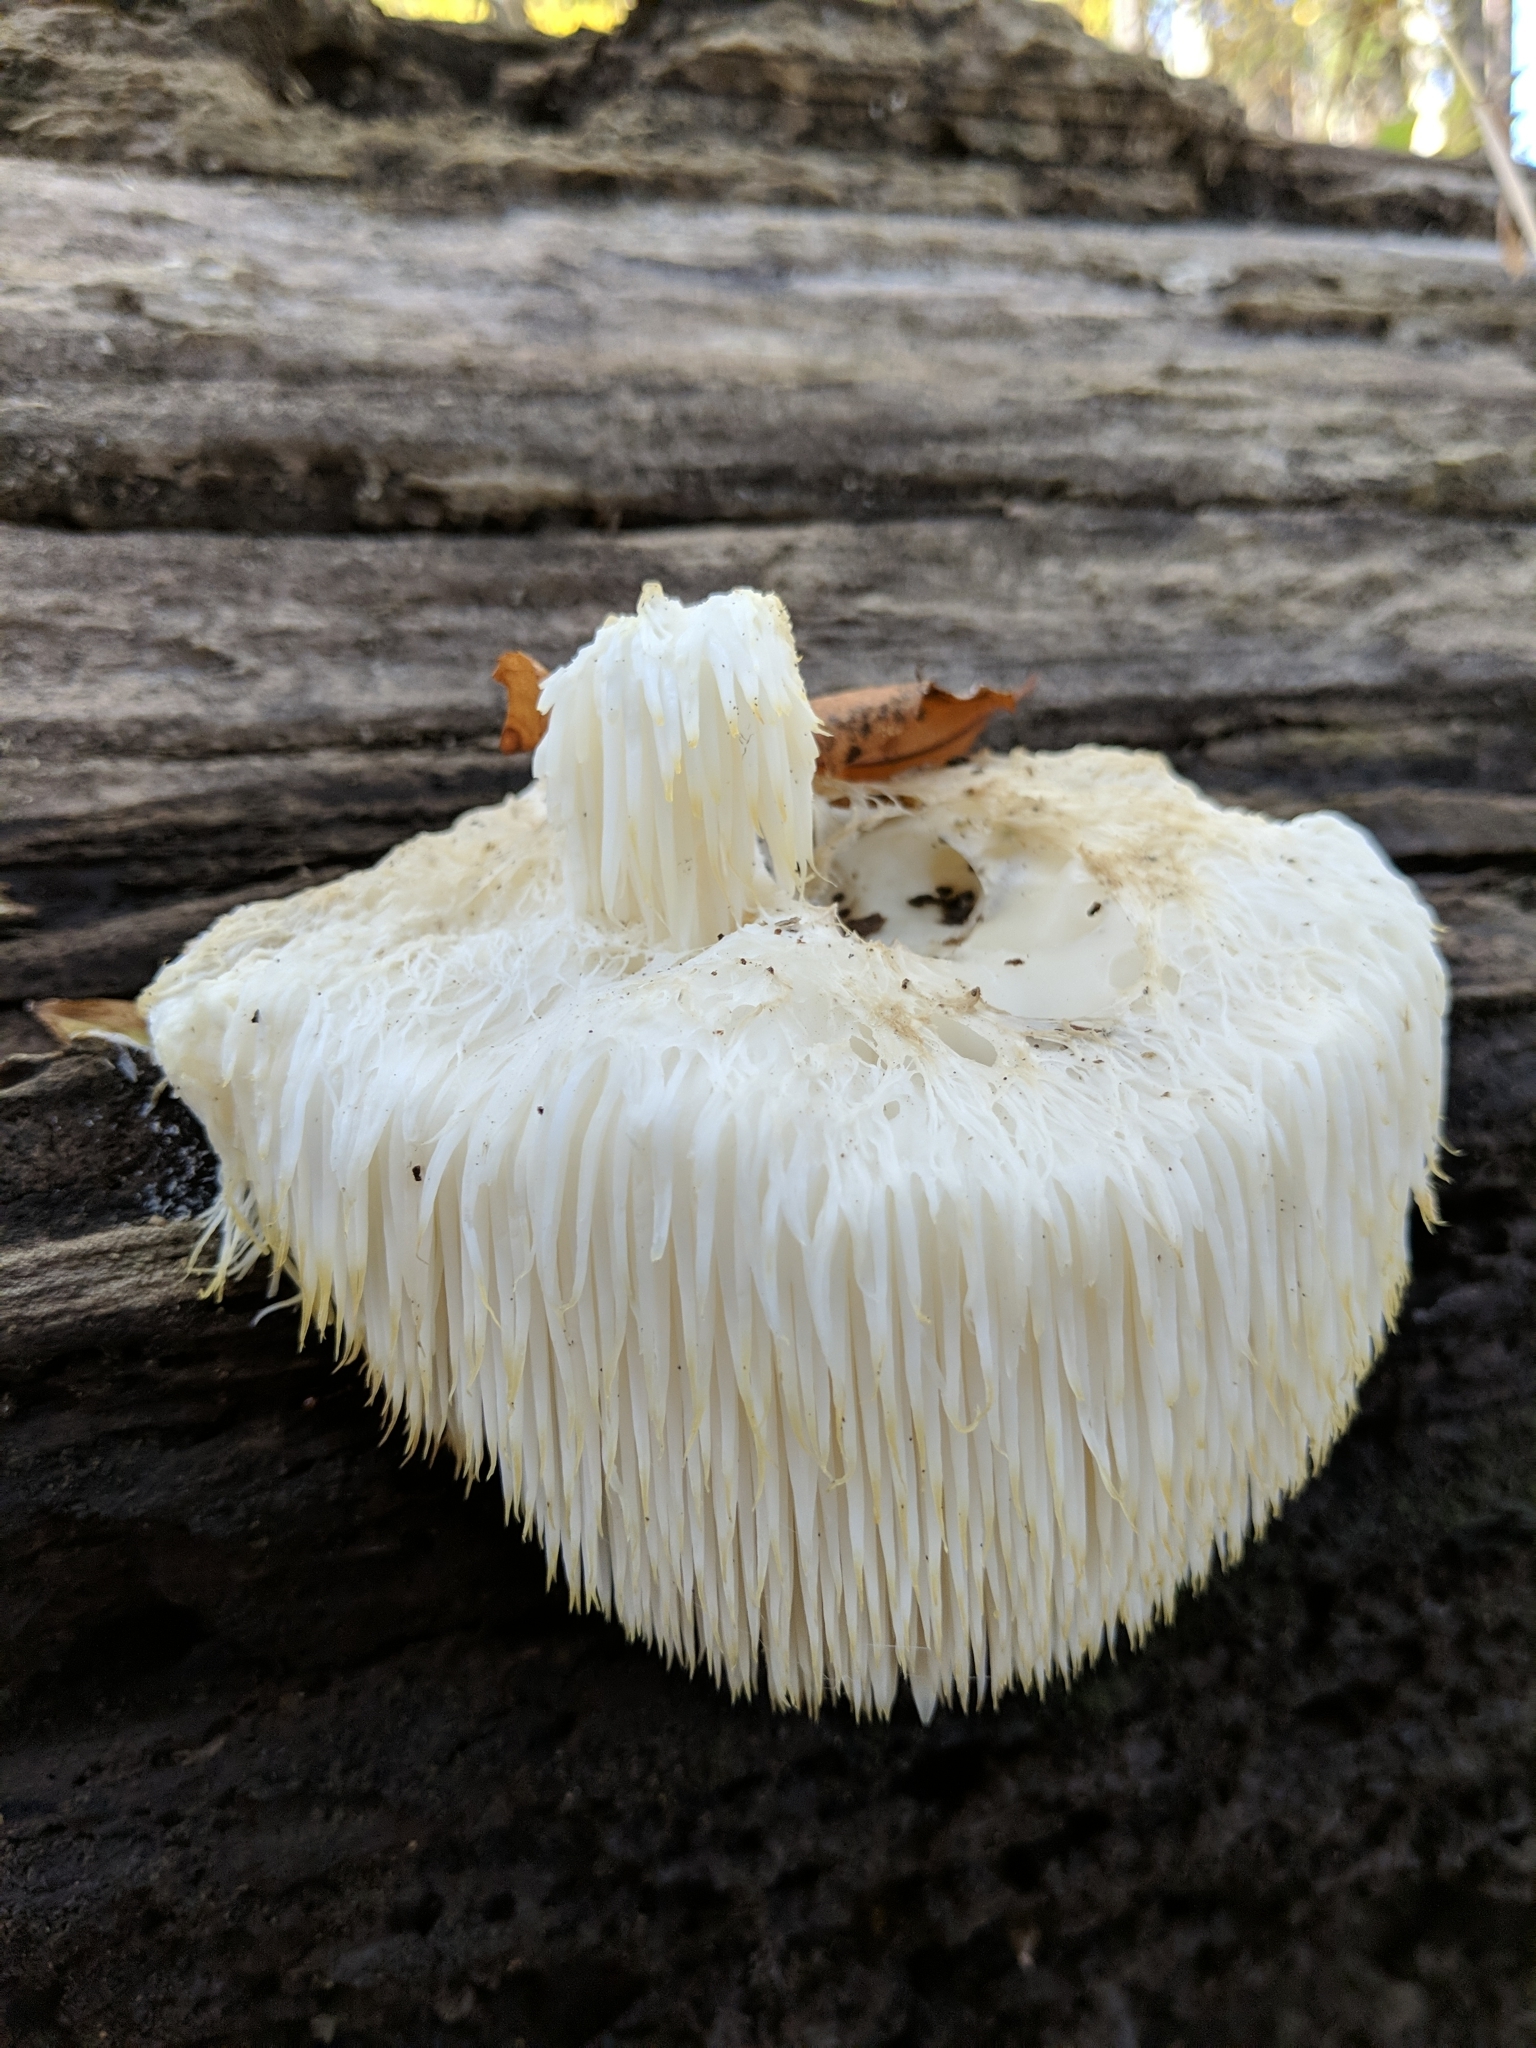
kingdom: Fungi
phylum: Basidiomycota
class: Agaricomycetes
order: Russulales
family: Hericiaceae
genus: Hericium
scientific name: Hericium erinaceus
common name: Bearded tooth
